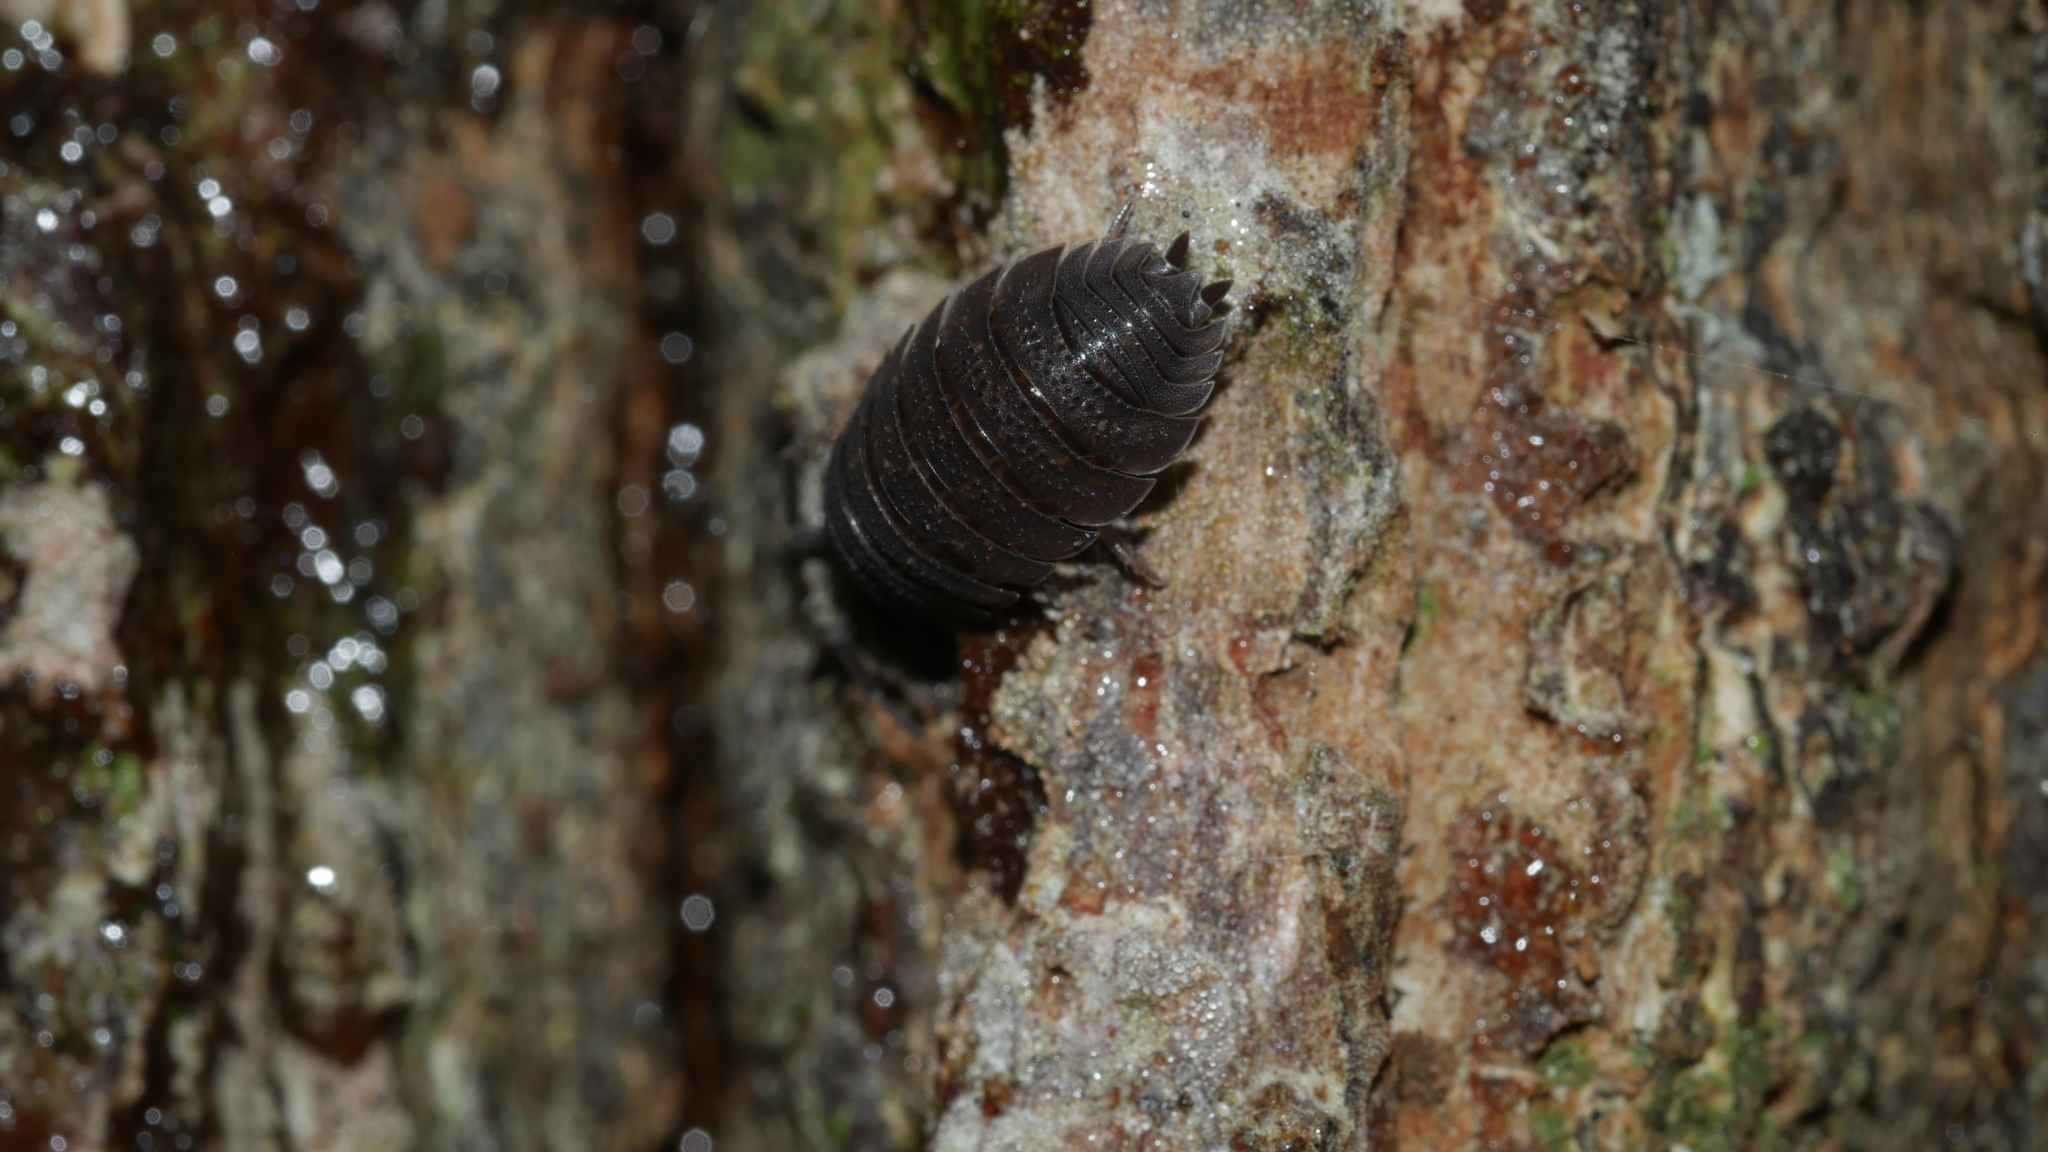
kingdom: Animalia
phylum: Arthropoda
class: Malacostraca
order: Isopoda
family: Porcellionidae
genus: Porcellio
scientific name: Porcellio scaber
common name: Common rough woodlouse
